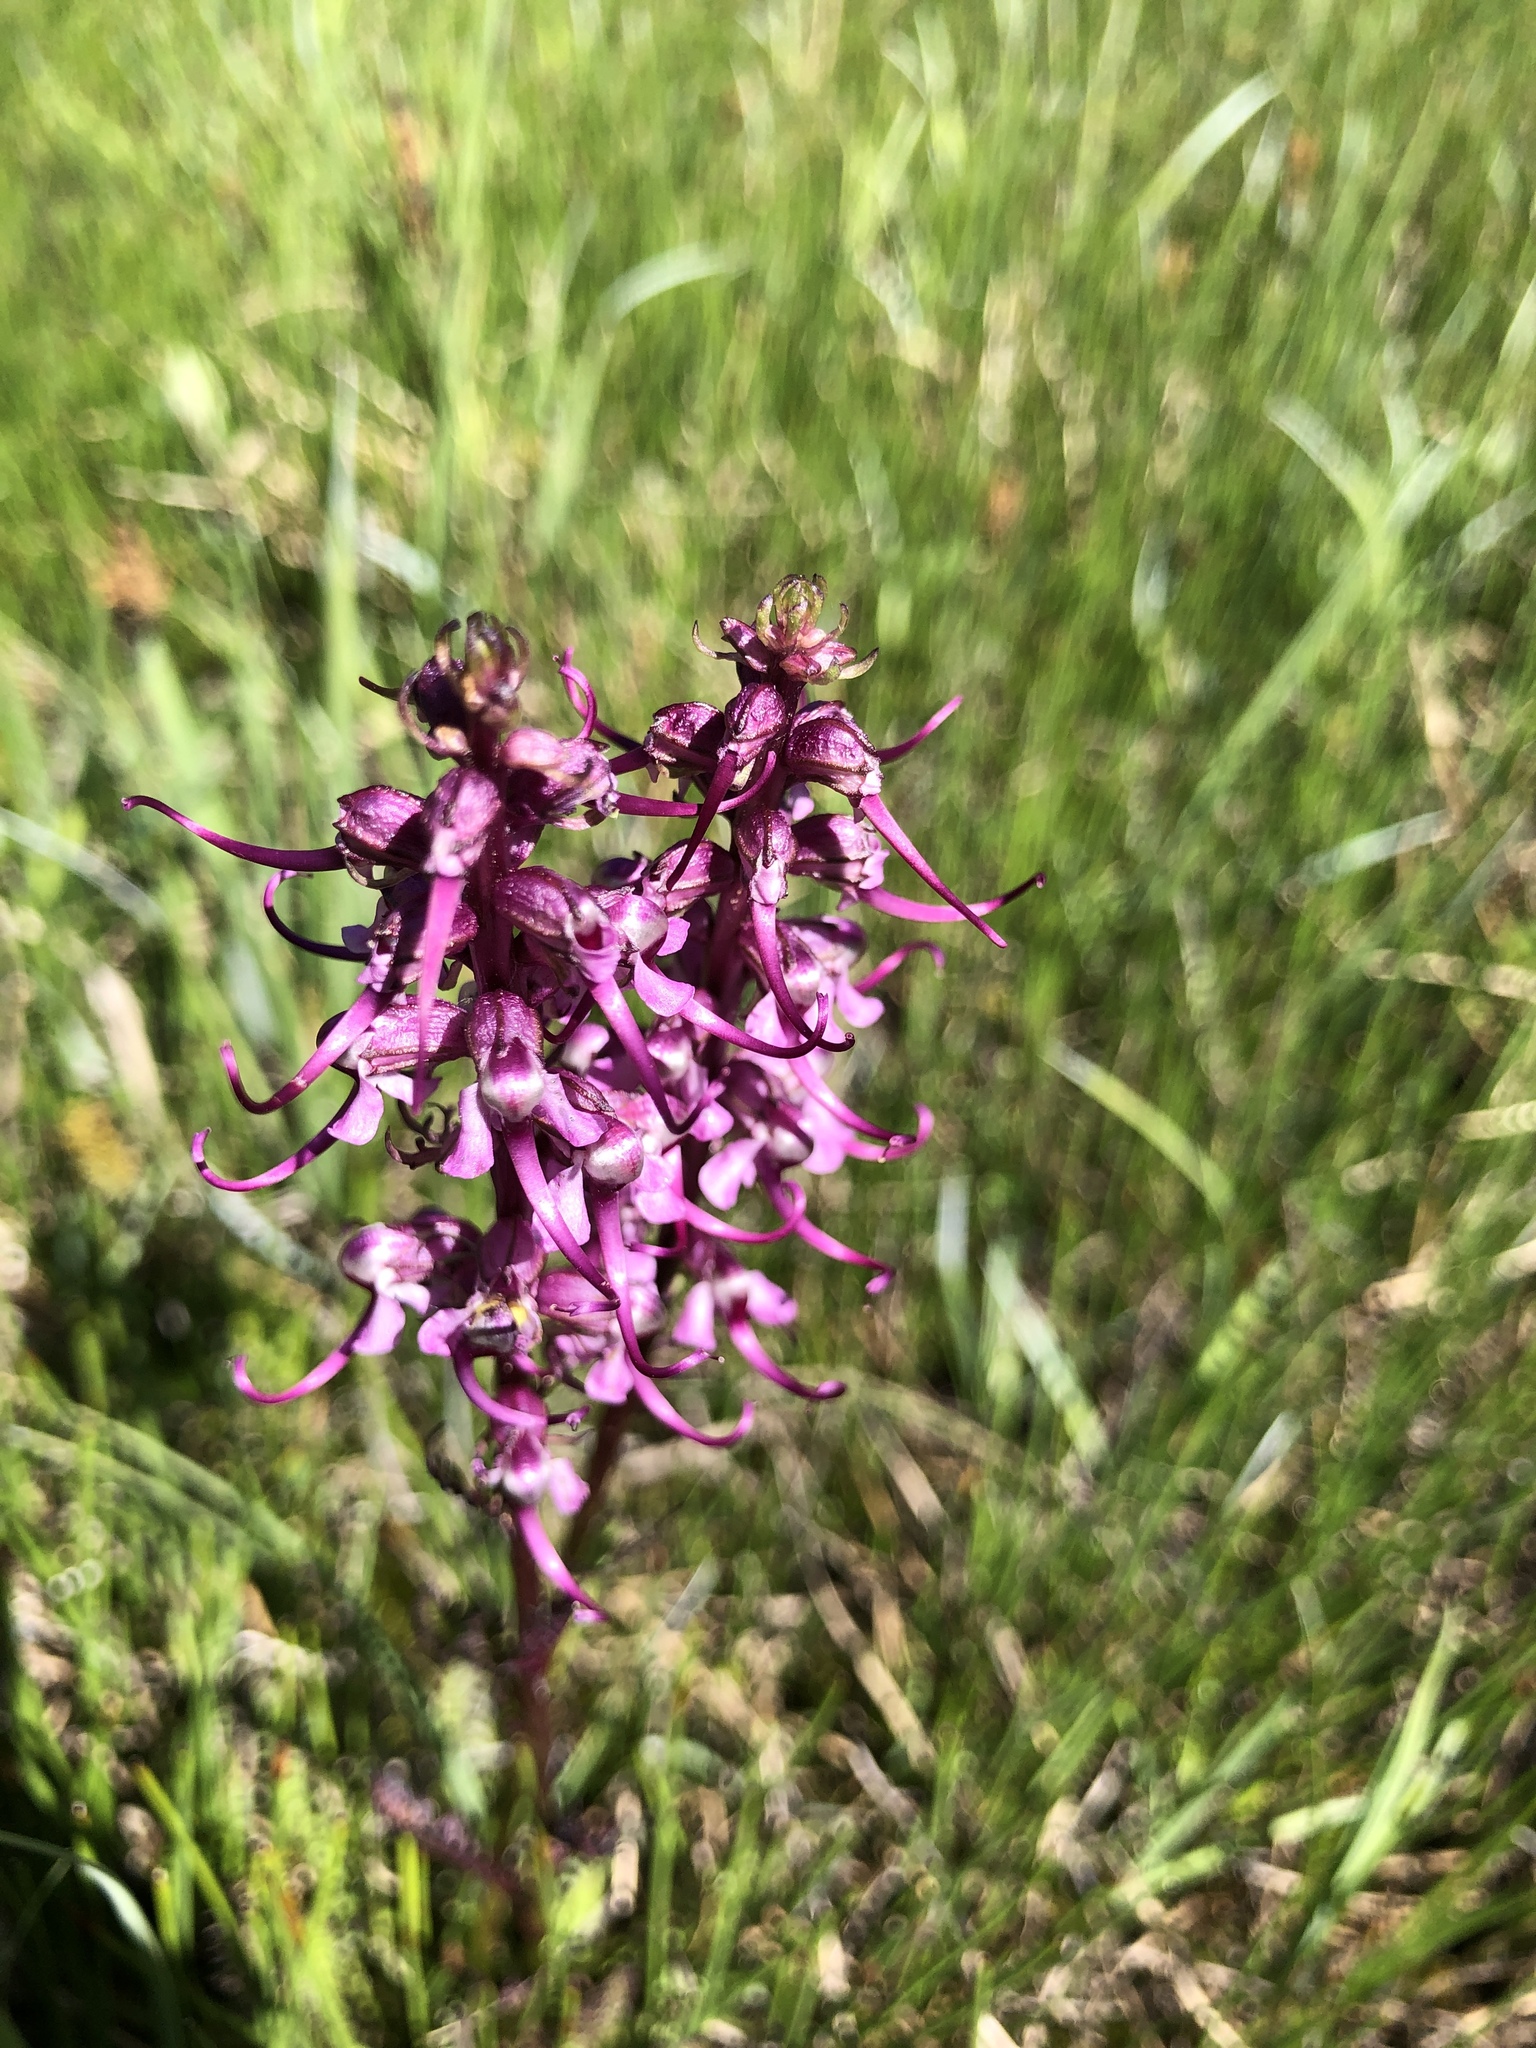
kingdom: Plantae
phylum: Tracheophyta
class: Magnoliopsida
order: Lamiales
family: Orobanchaceae
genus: Pedicularis
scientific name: Pedicularis groenlandica
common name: Elephant's-head
